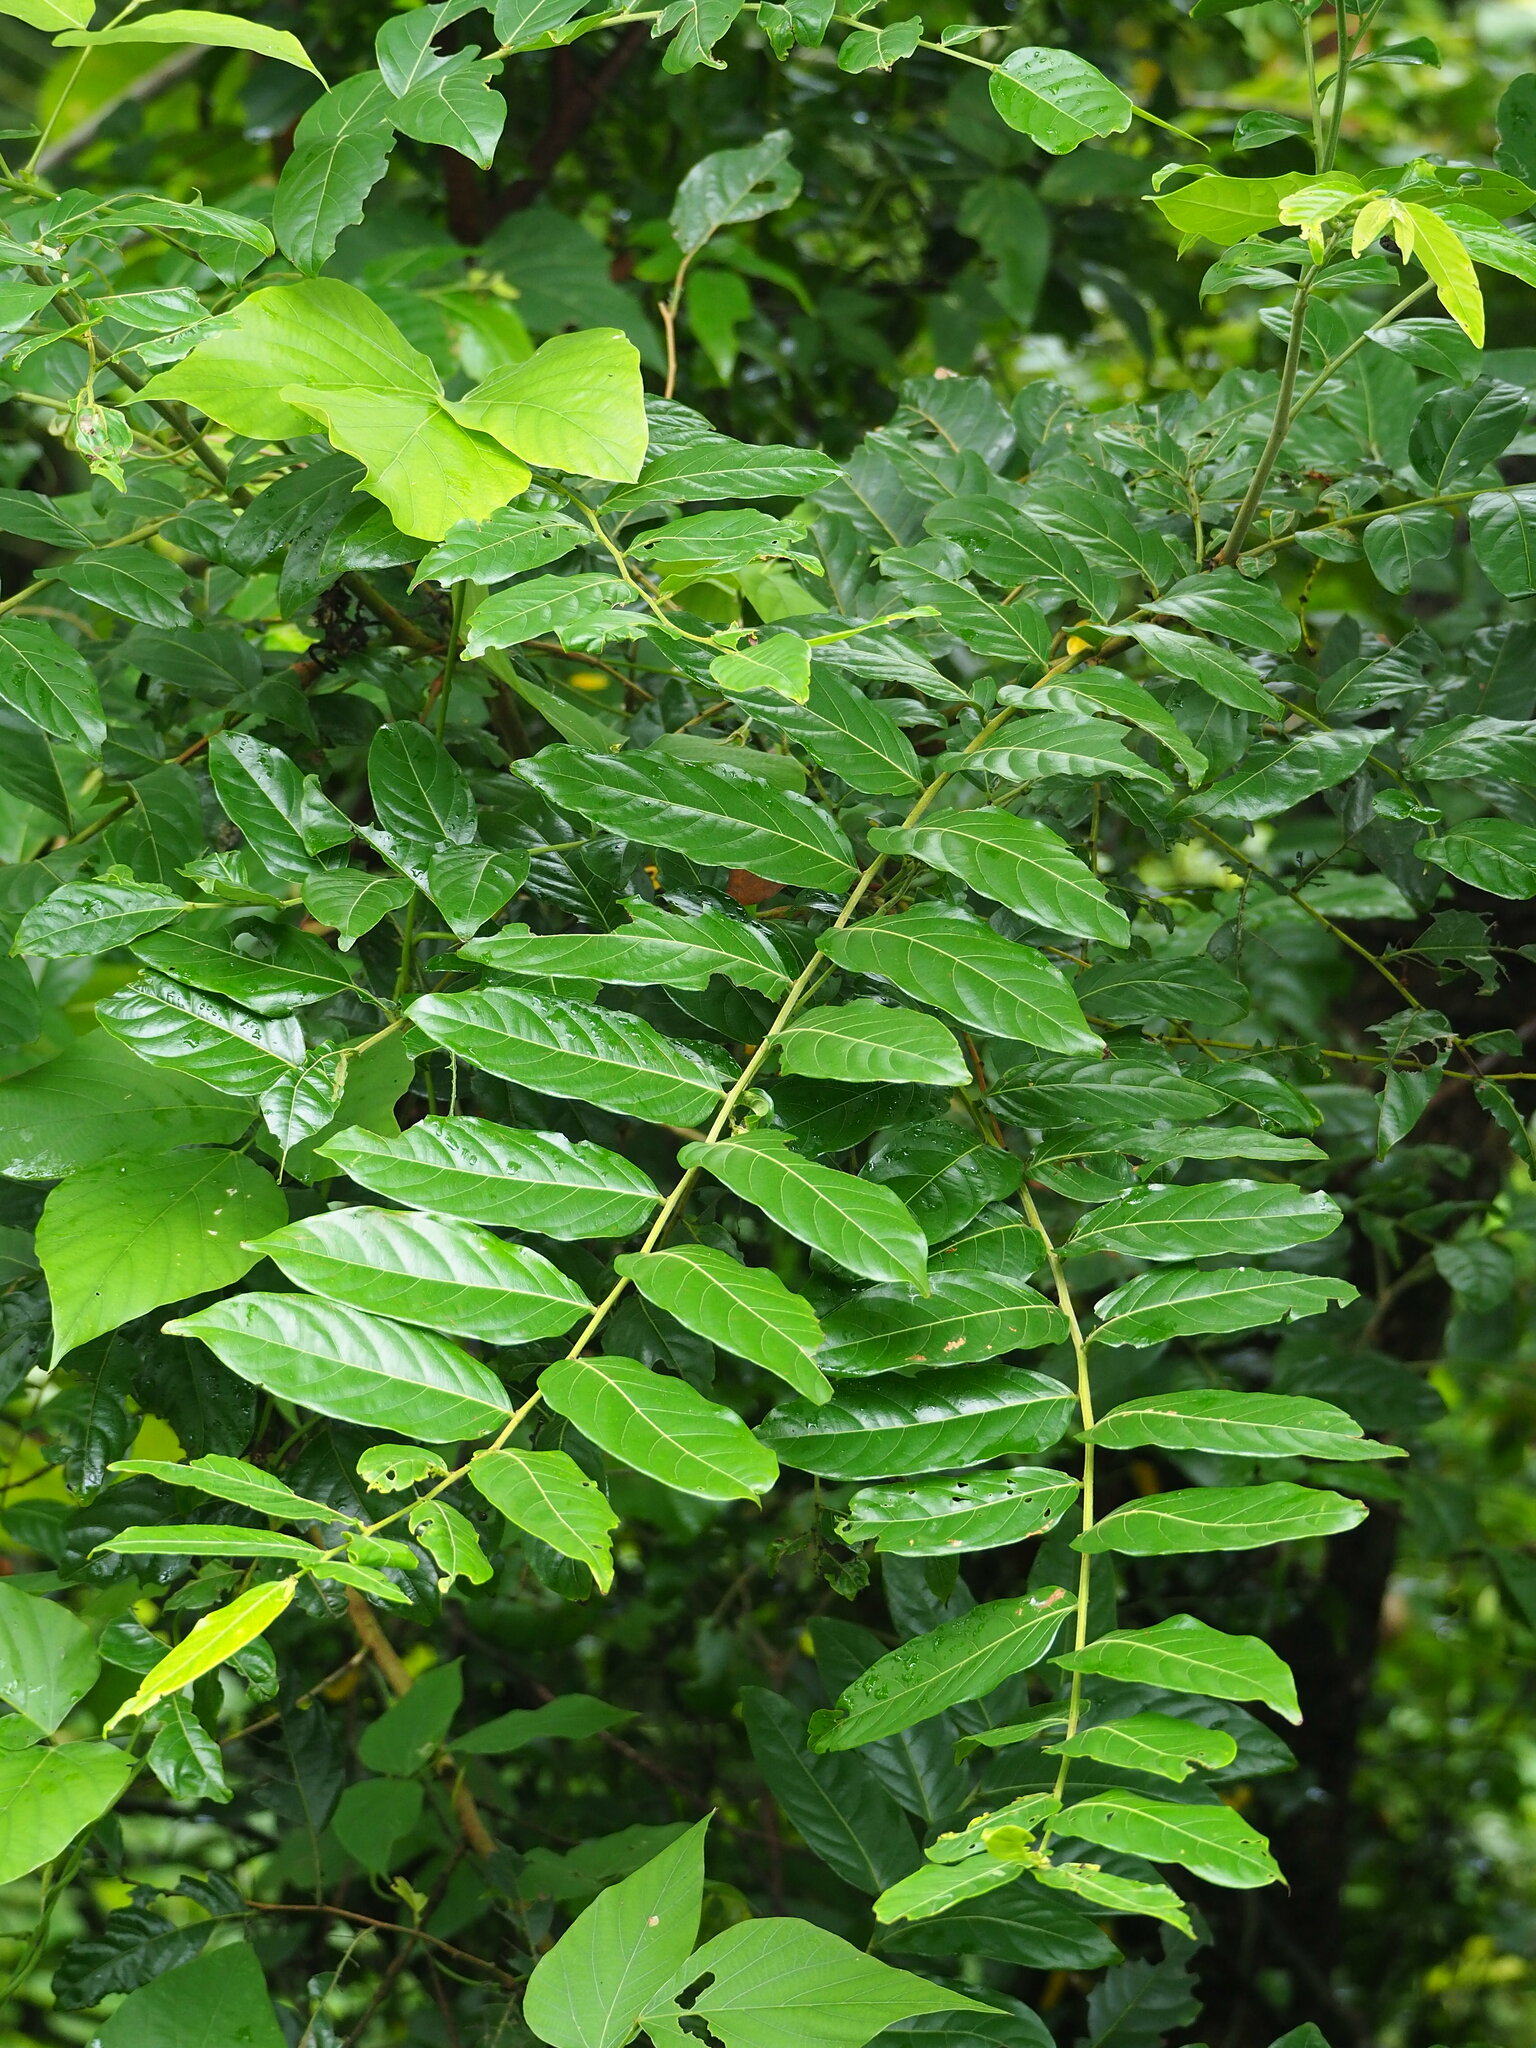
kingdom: Plantae
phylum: Tracheophyta
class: Magnoliopsida
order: Malpighiales
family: Phyllanthaceae
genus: Glochidion
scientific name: Glochidion philippicum
